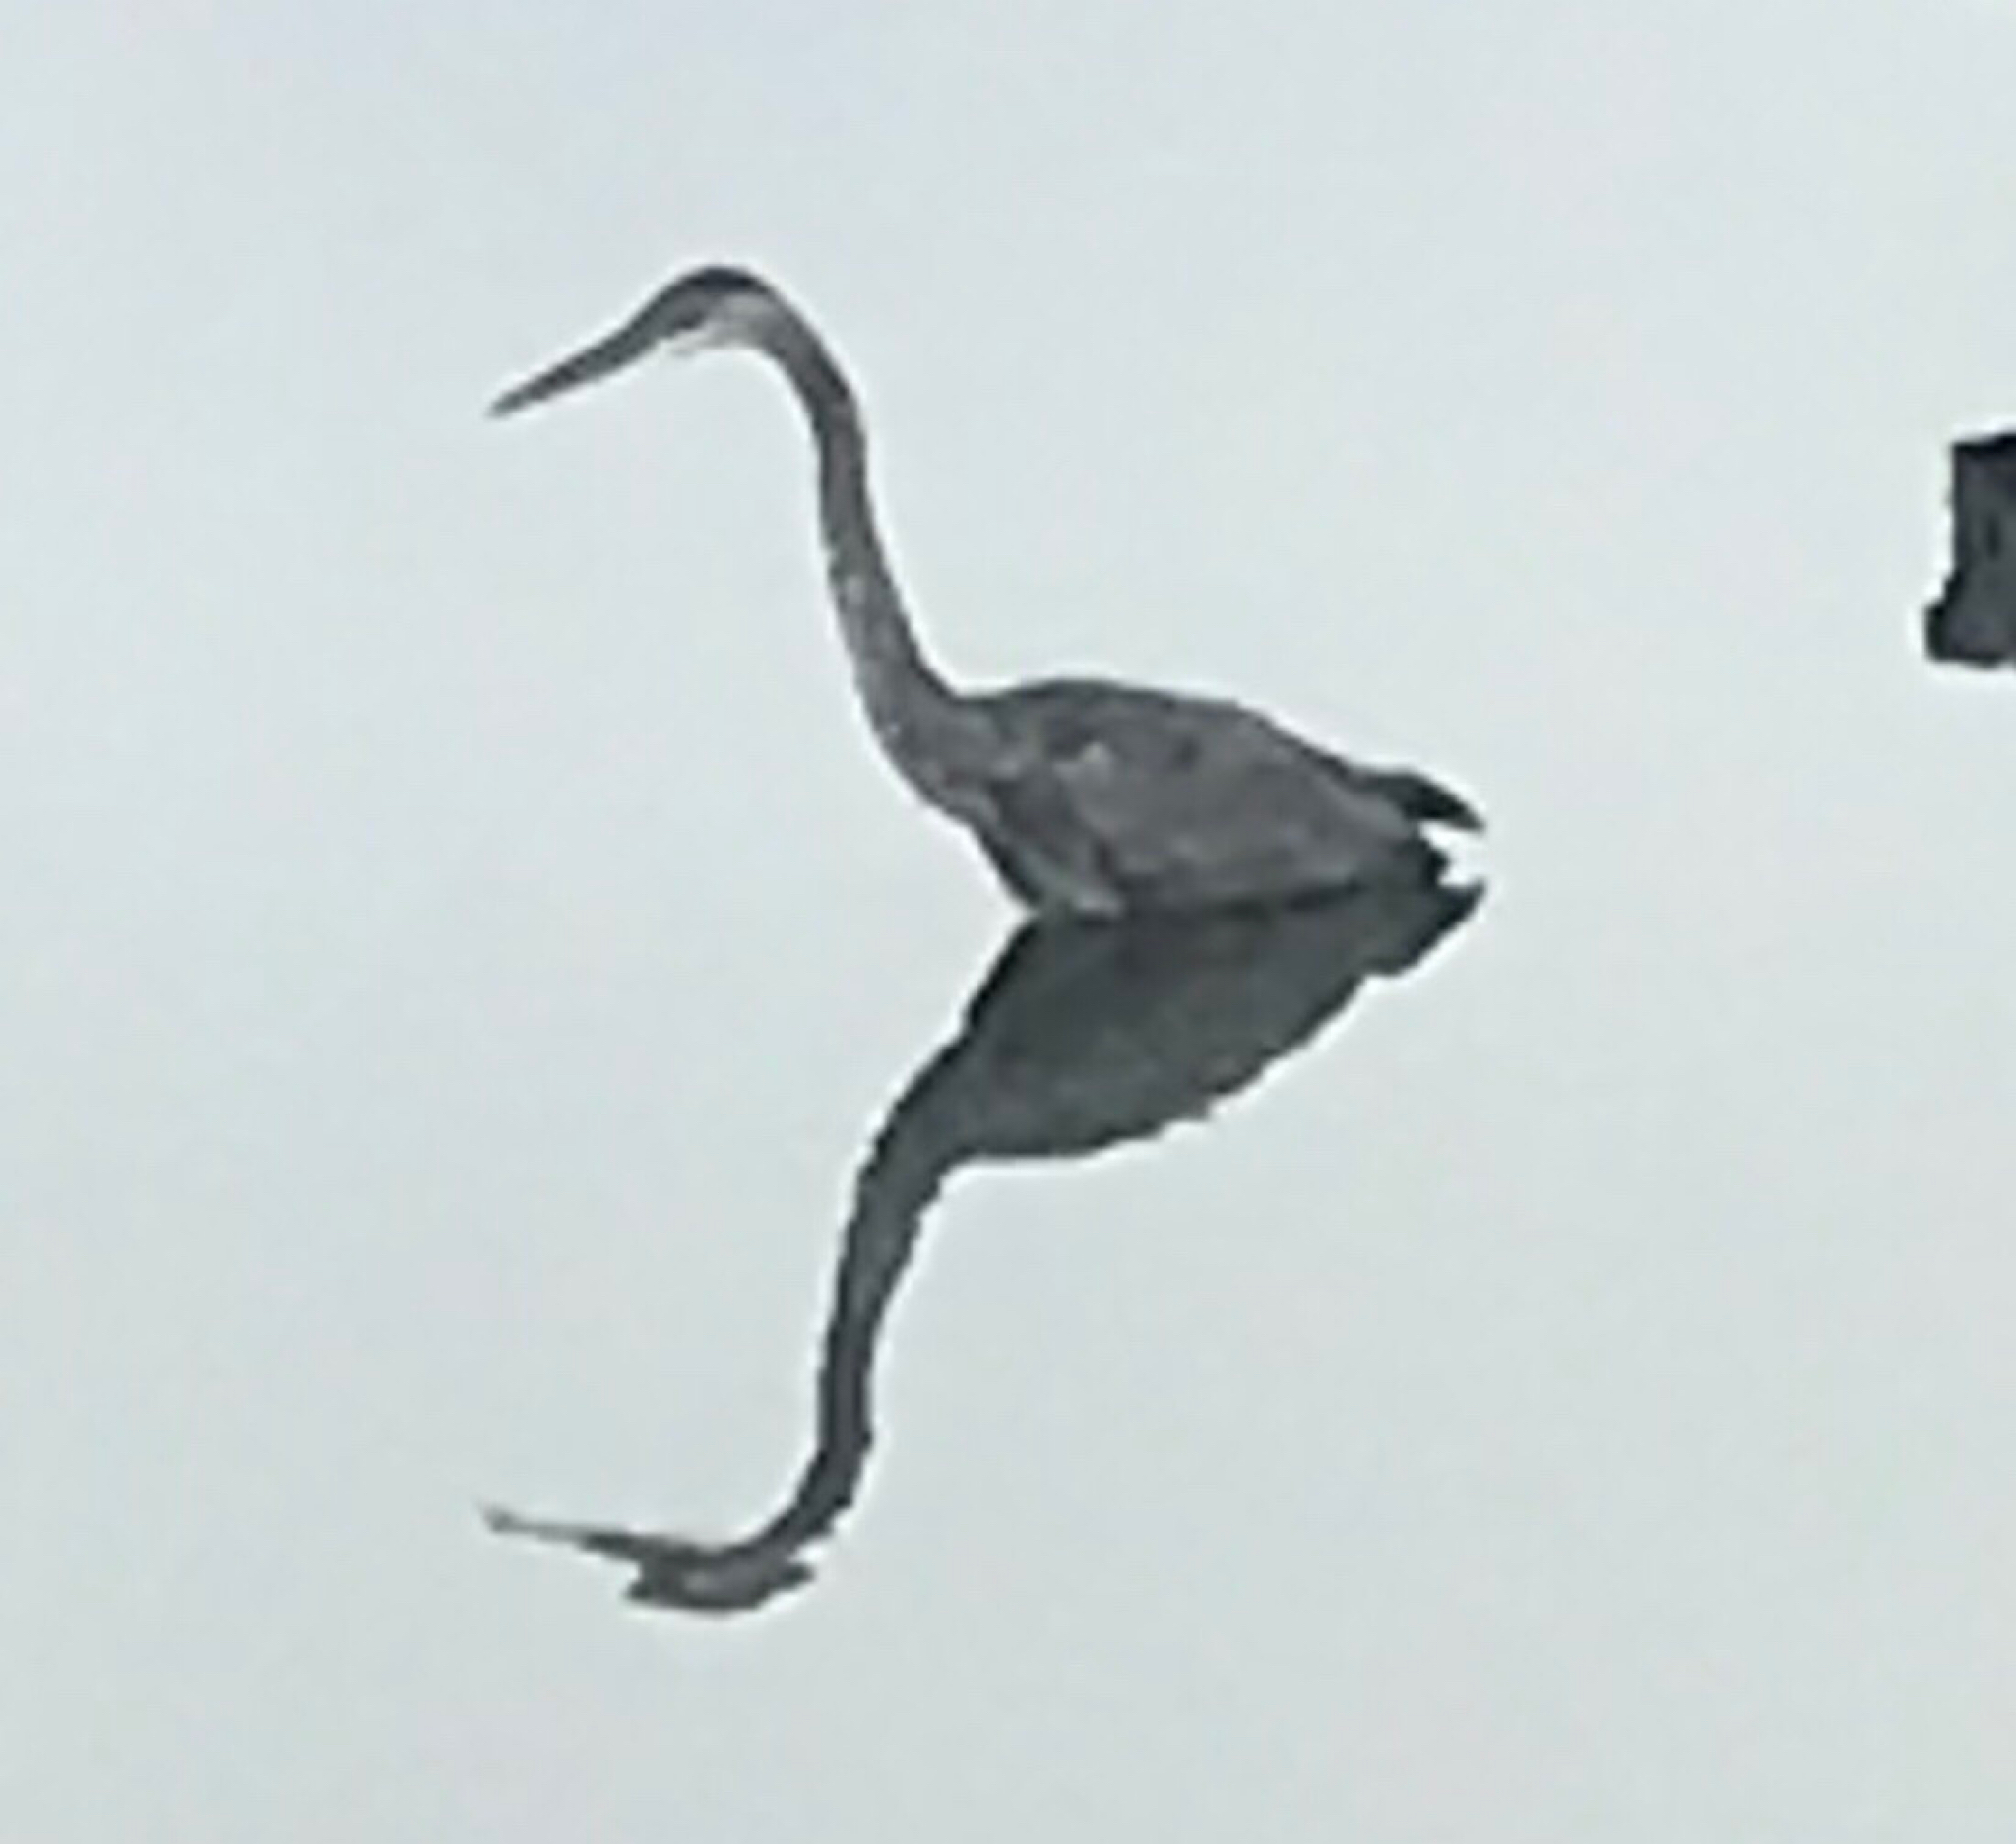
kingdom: Animalia
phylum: Chordata
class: Aves
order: Pelecaniformes
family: Ardeidae
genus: Ardea
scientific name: Ardea herodias
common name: Great blue heron
